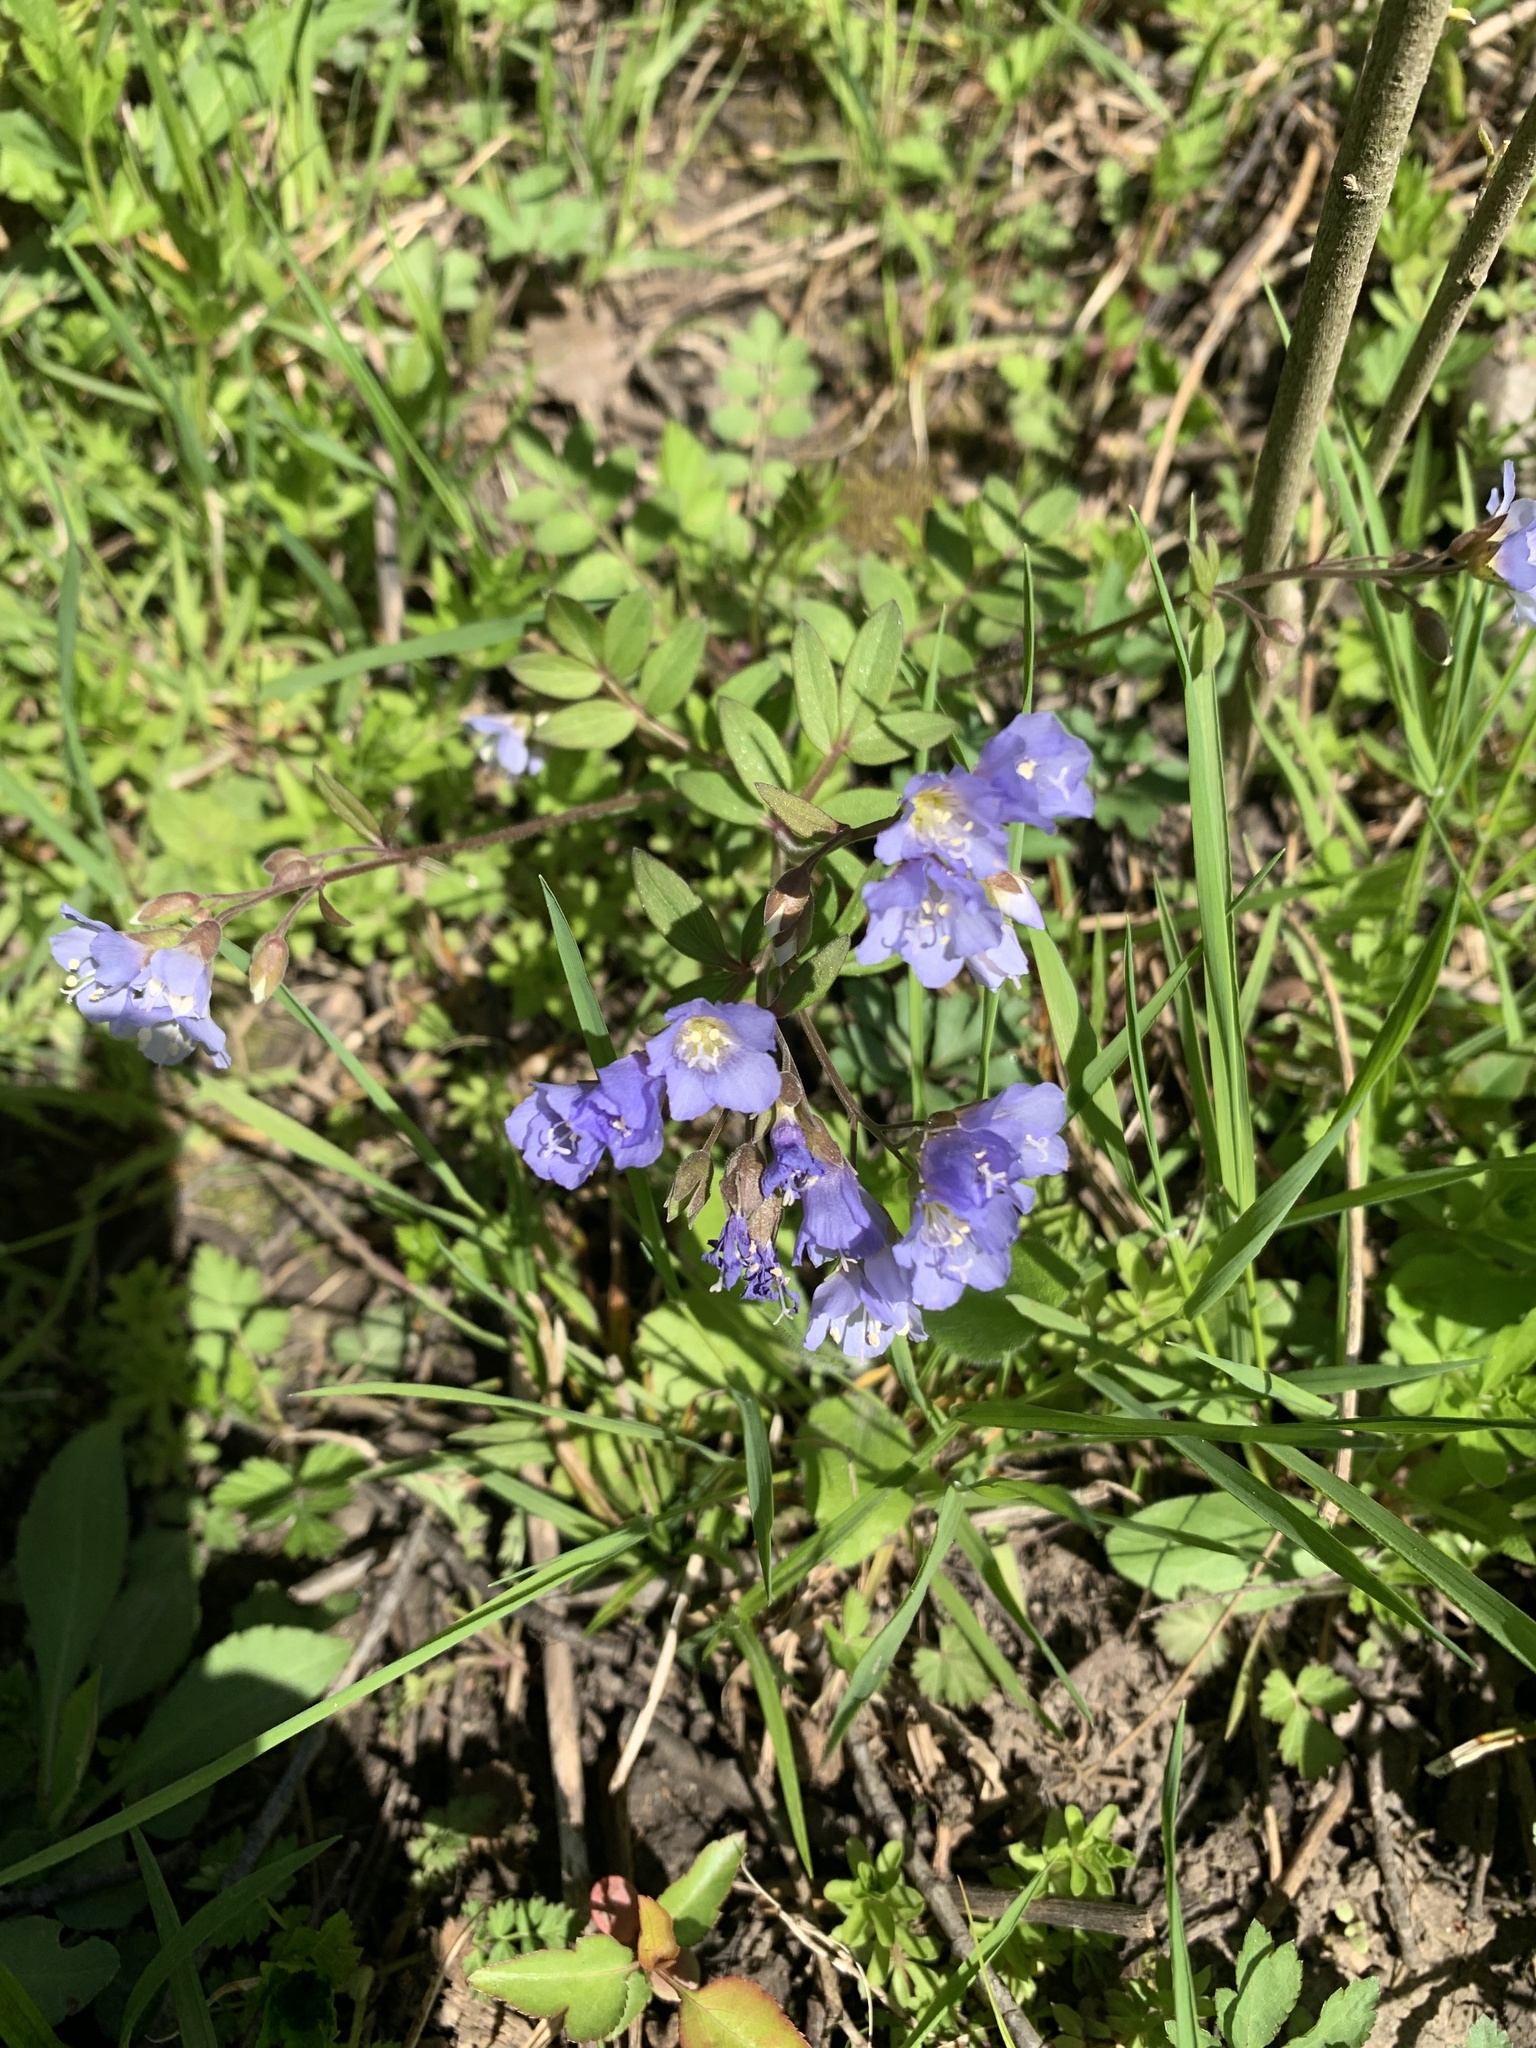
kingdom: Plantae
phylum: Tracheophyta
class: Magnoliopsida
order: Ericales
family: Polemoniaceae
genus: Polemonium
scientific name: Polemonium reptans
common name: Creeping jacob's-ladder
